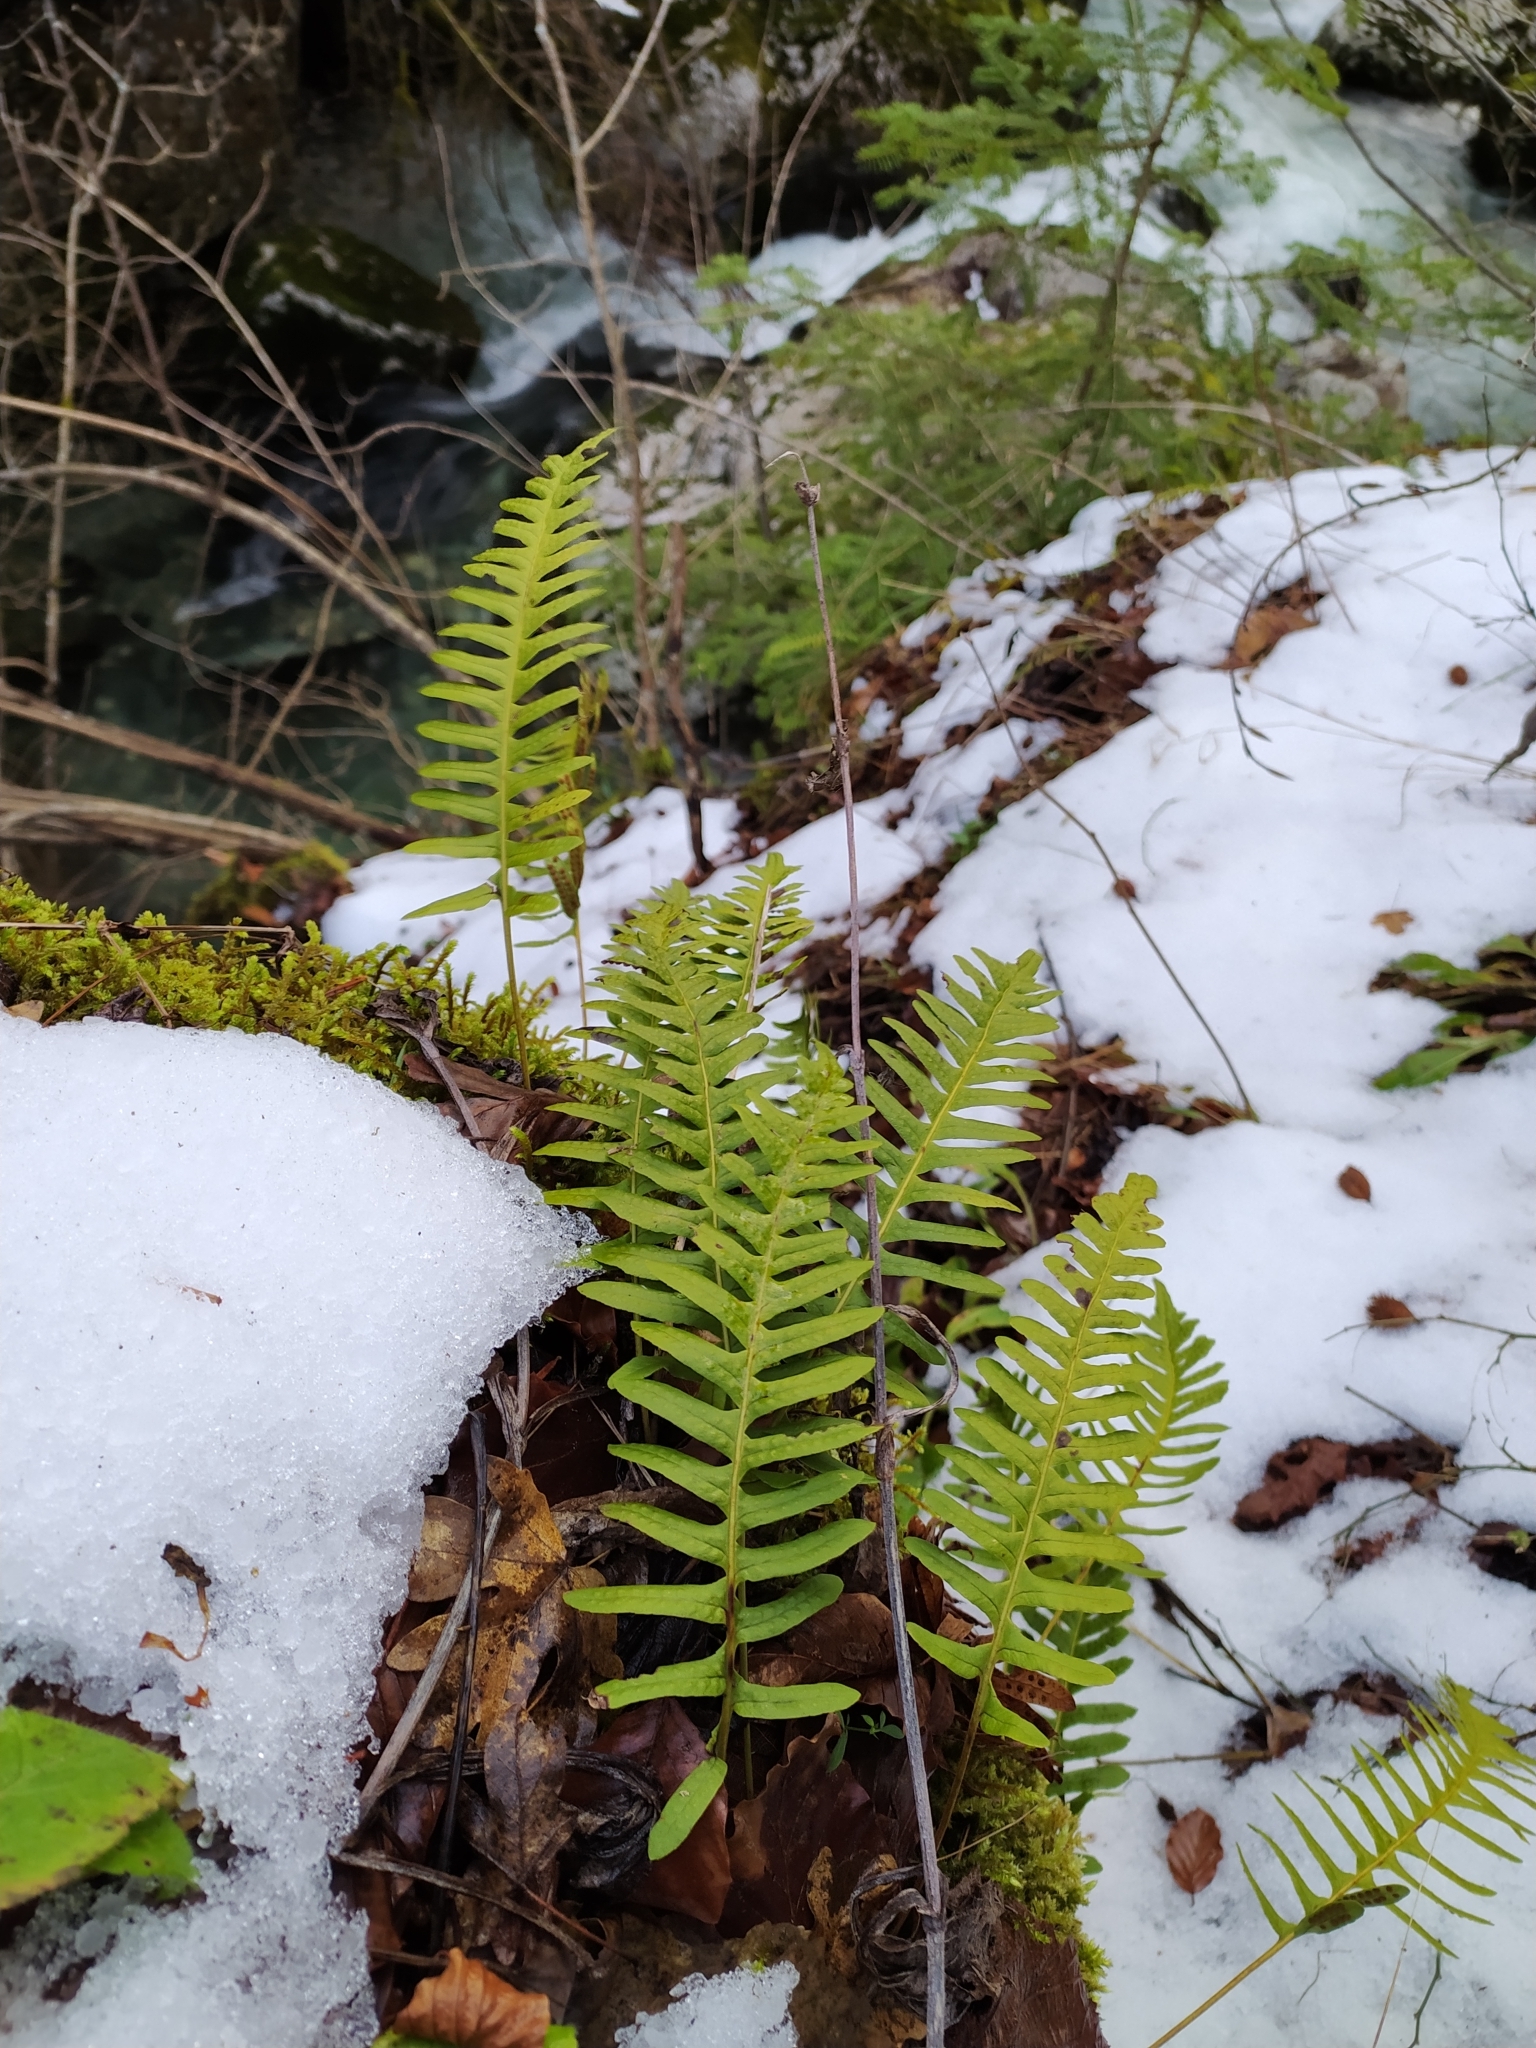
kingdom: Plantae
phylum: Tracheophyta
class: Polypodiopsida
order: Polypodiales
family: Polypodiaceae
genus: Polypodium
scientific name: Polypodium vulgare
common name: Common polypody
